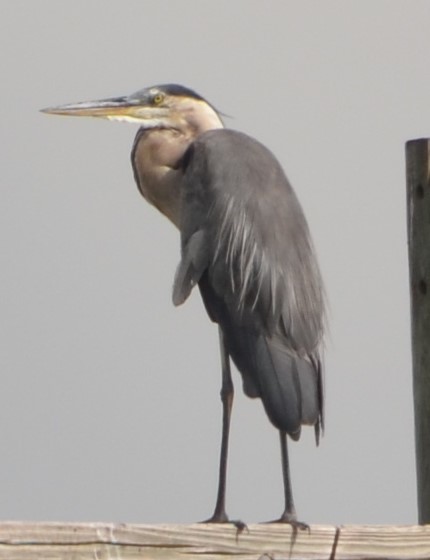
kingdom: Animalia
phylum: Chordata
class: Aves
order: Pelecaniformes
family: Ardeidae
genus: Ardea
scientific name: Ardea herodias
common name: Great blue heron
